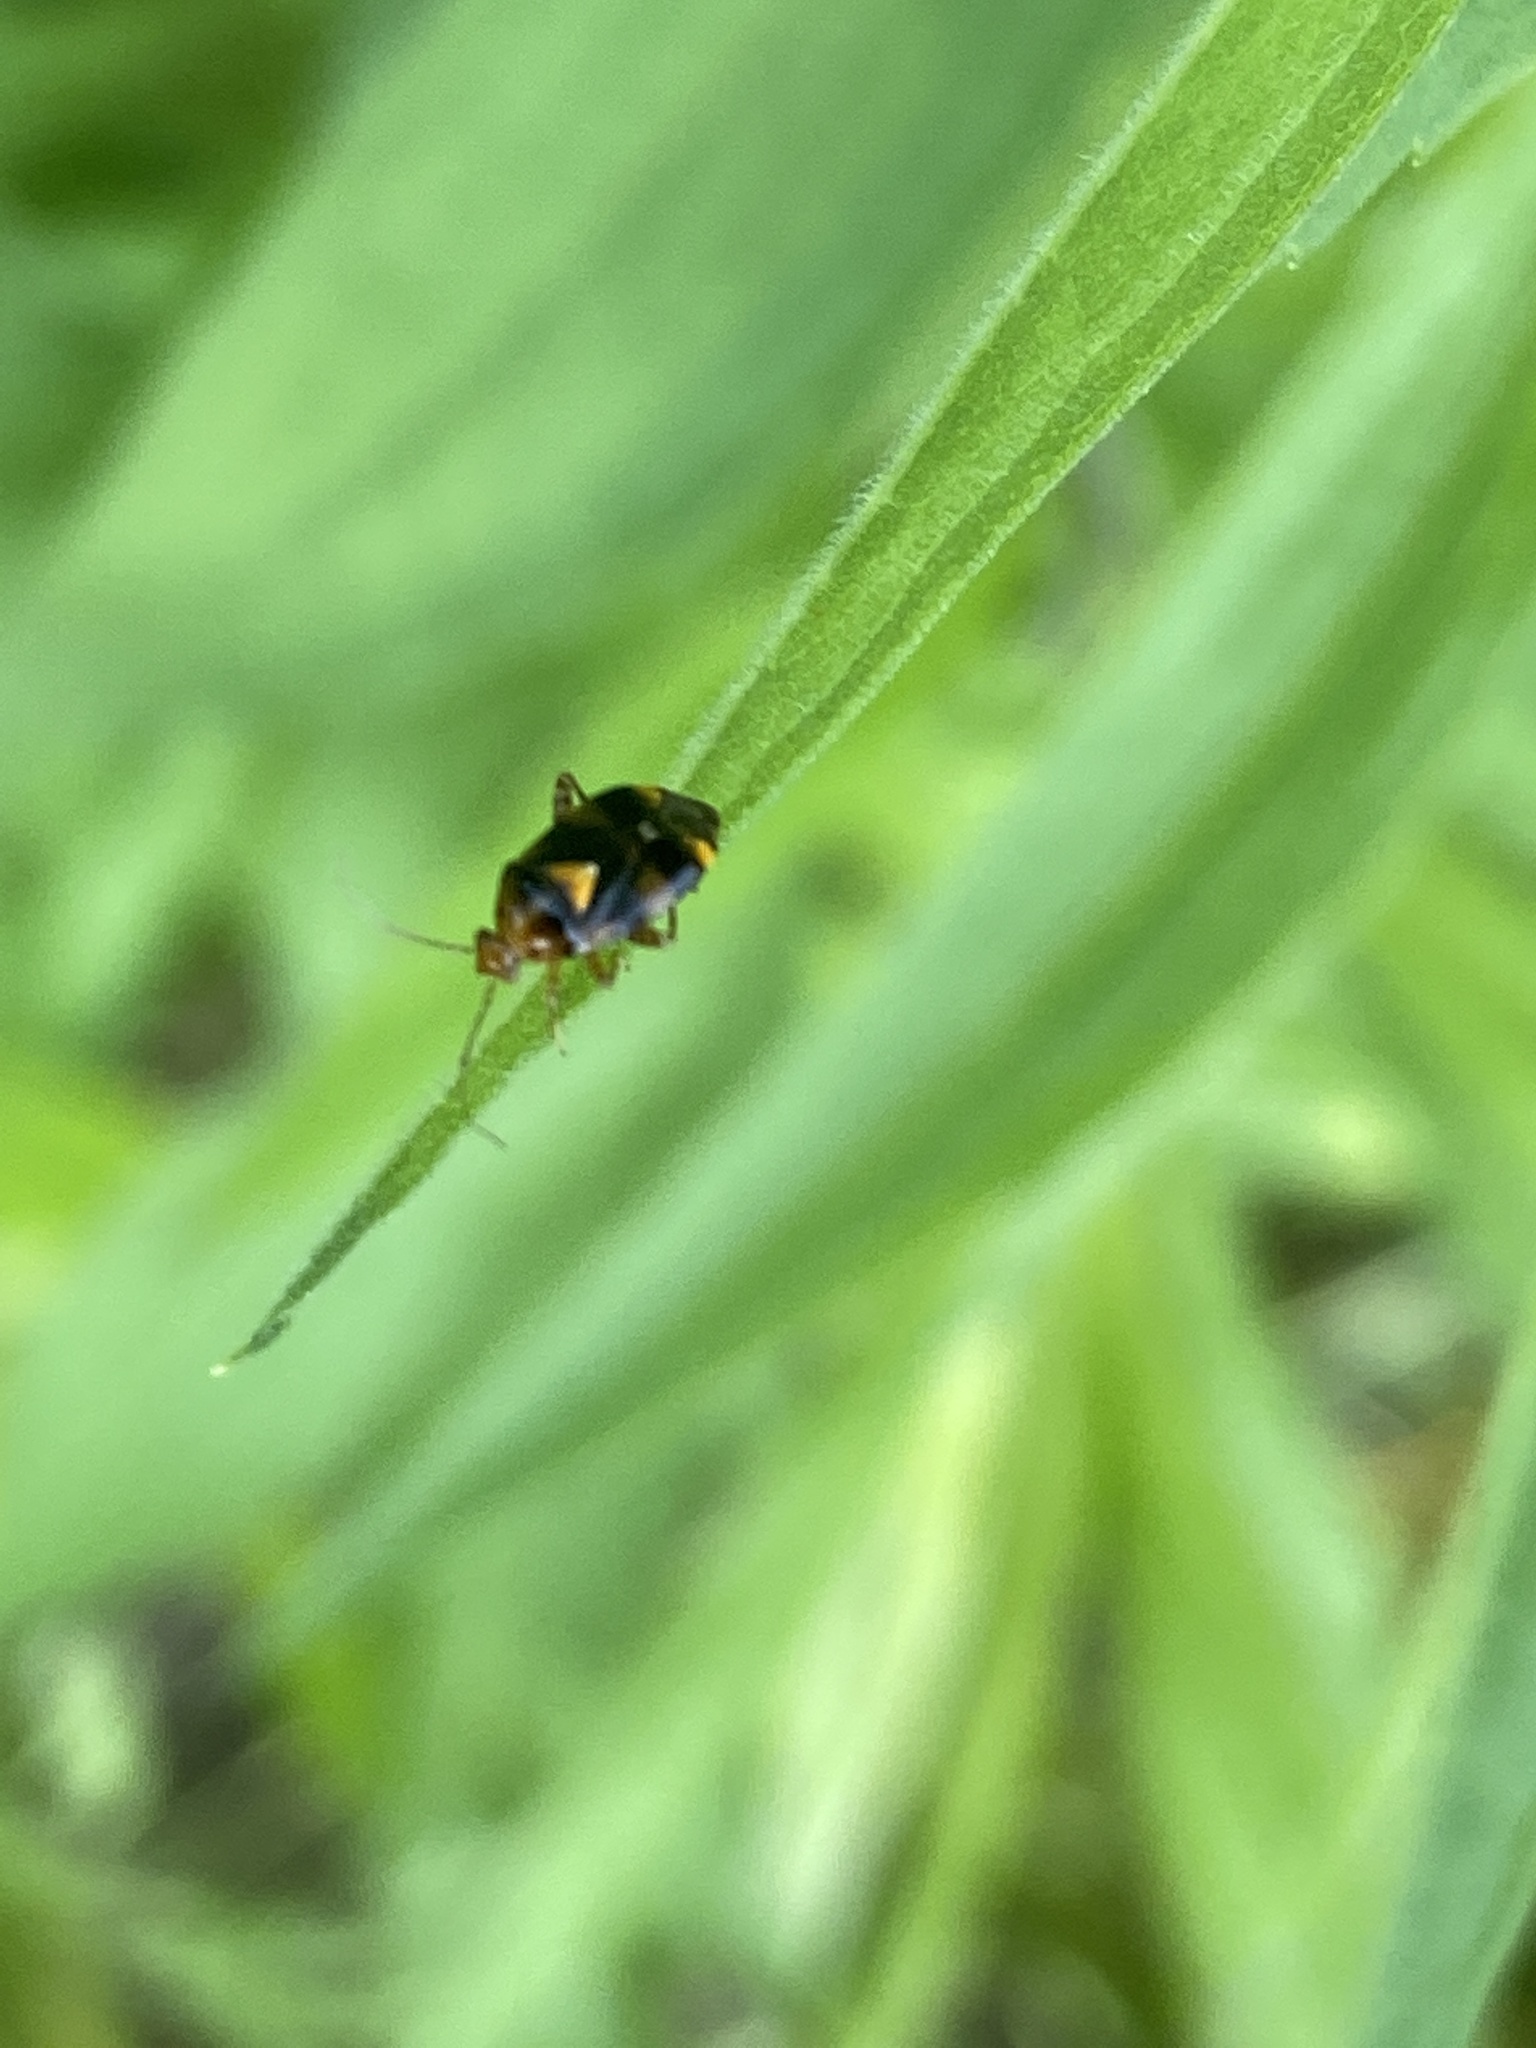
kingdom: Animalia
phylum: Arthropoda
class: Insecta
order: Hemiptera
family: Miridae
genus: Liocoris
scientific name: Liocoris tripustulatus
